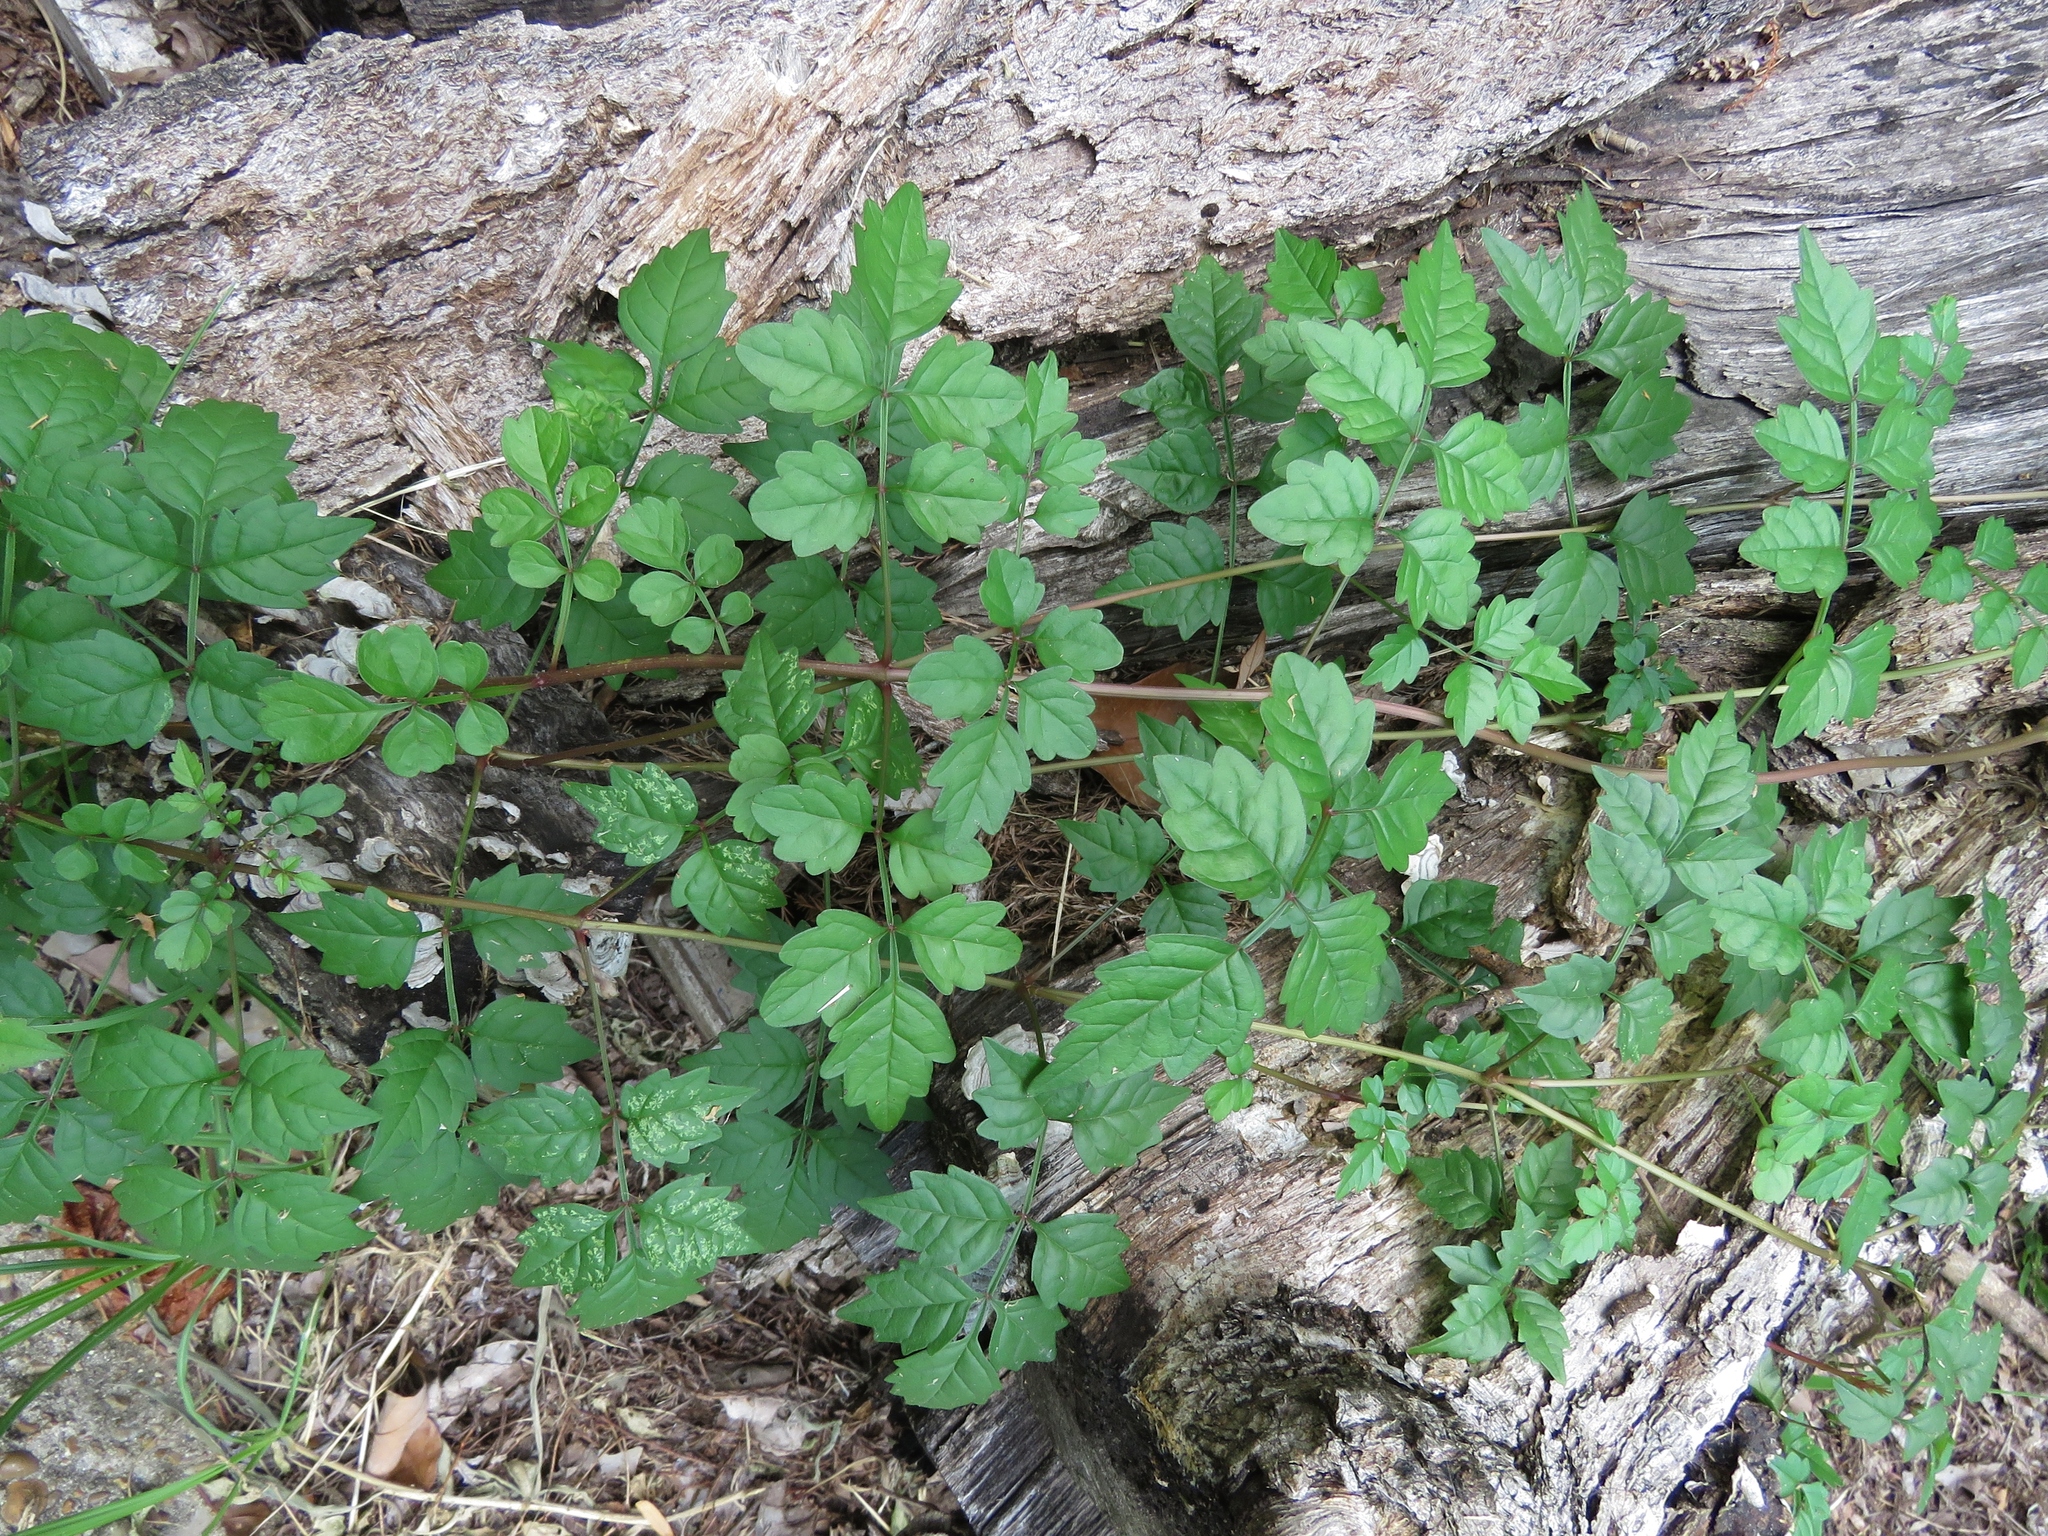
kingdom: Plantae
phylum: Tracheophyta
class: Magnoliopsida
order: Lamiales
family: Bignoniaceae
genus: Campsis
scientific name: Campsis radicans
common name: Trumpet-creeper
